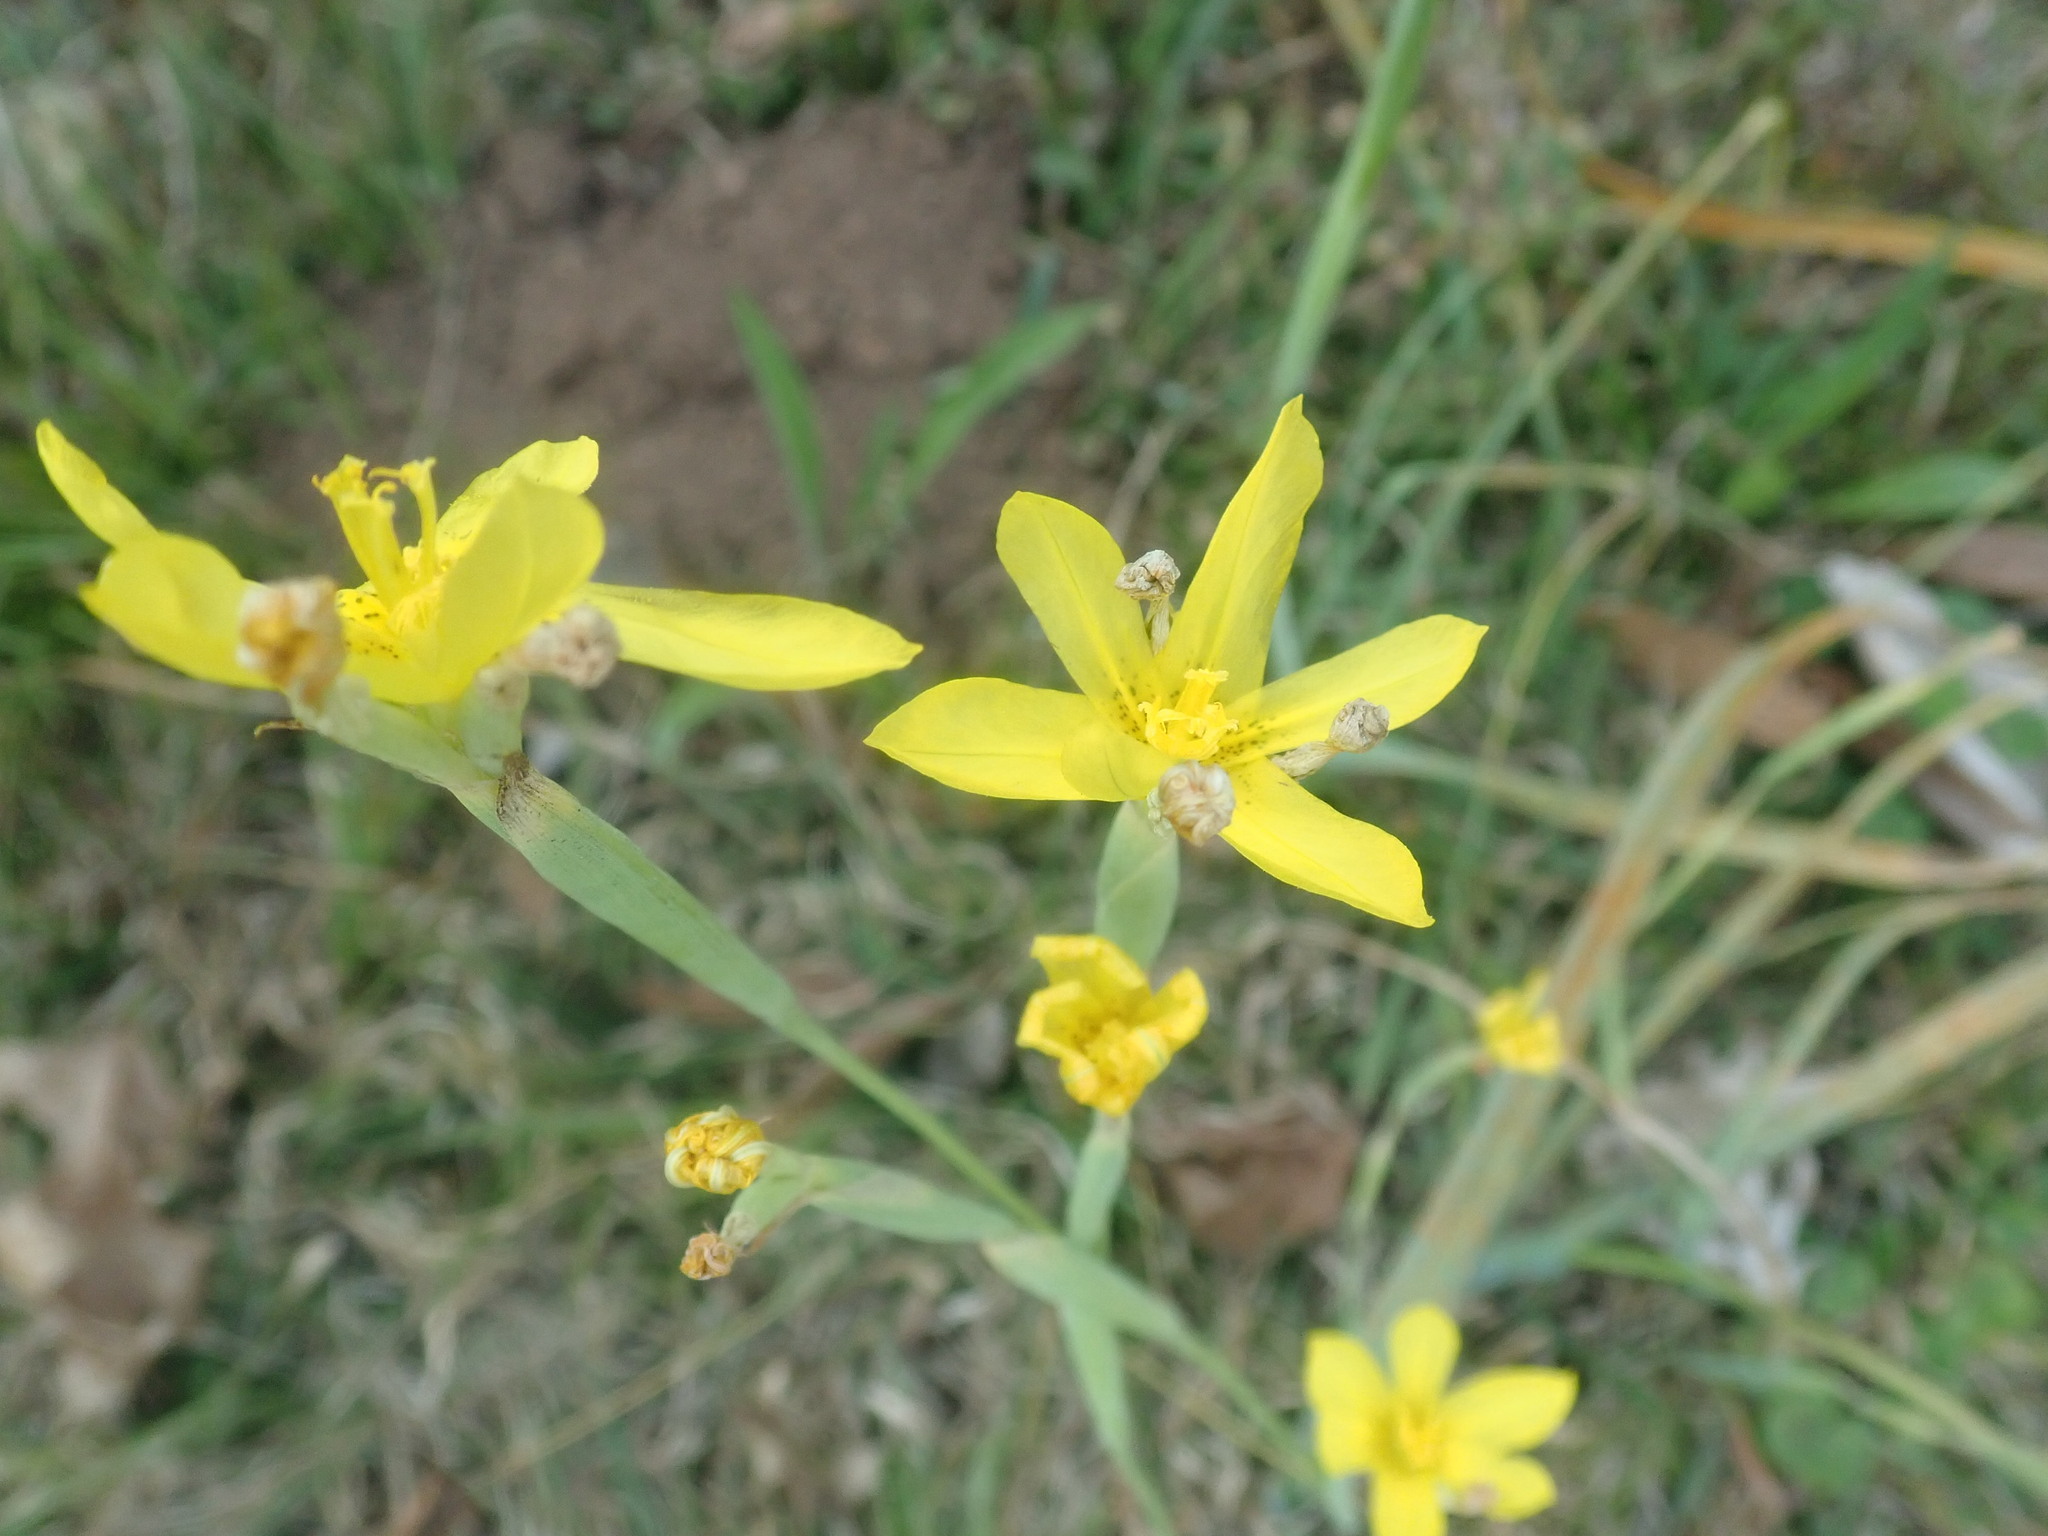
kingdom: Plantae
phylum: Tracheophyta
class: Liliopsida
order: Asparagales
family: Iridaceae
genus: Moraea
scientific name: Moraea pallida
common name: Yellow tulp
